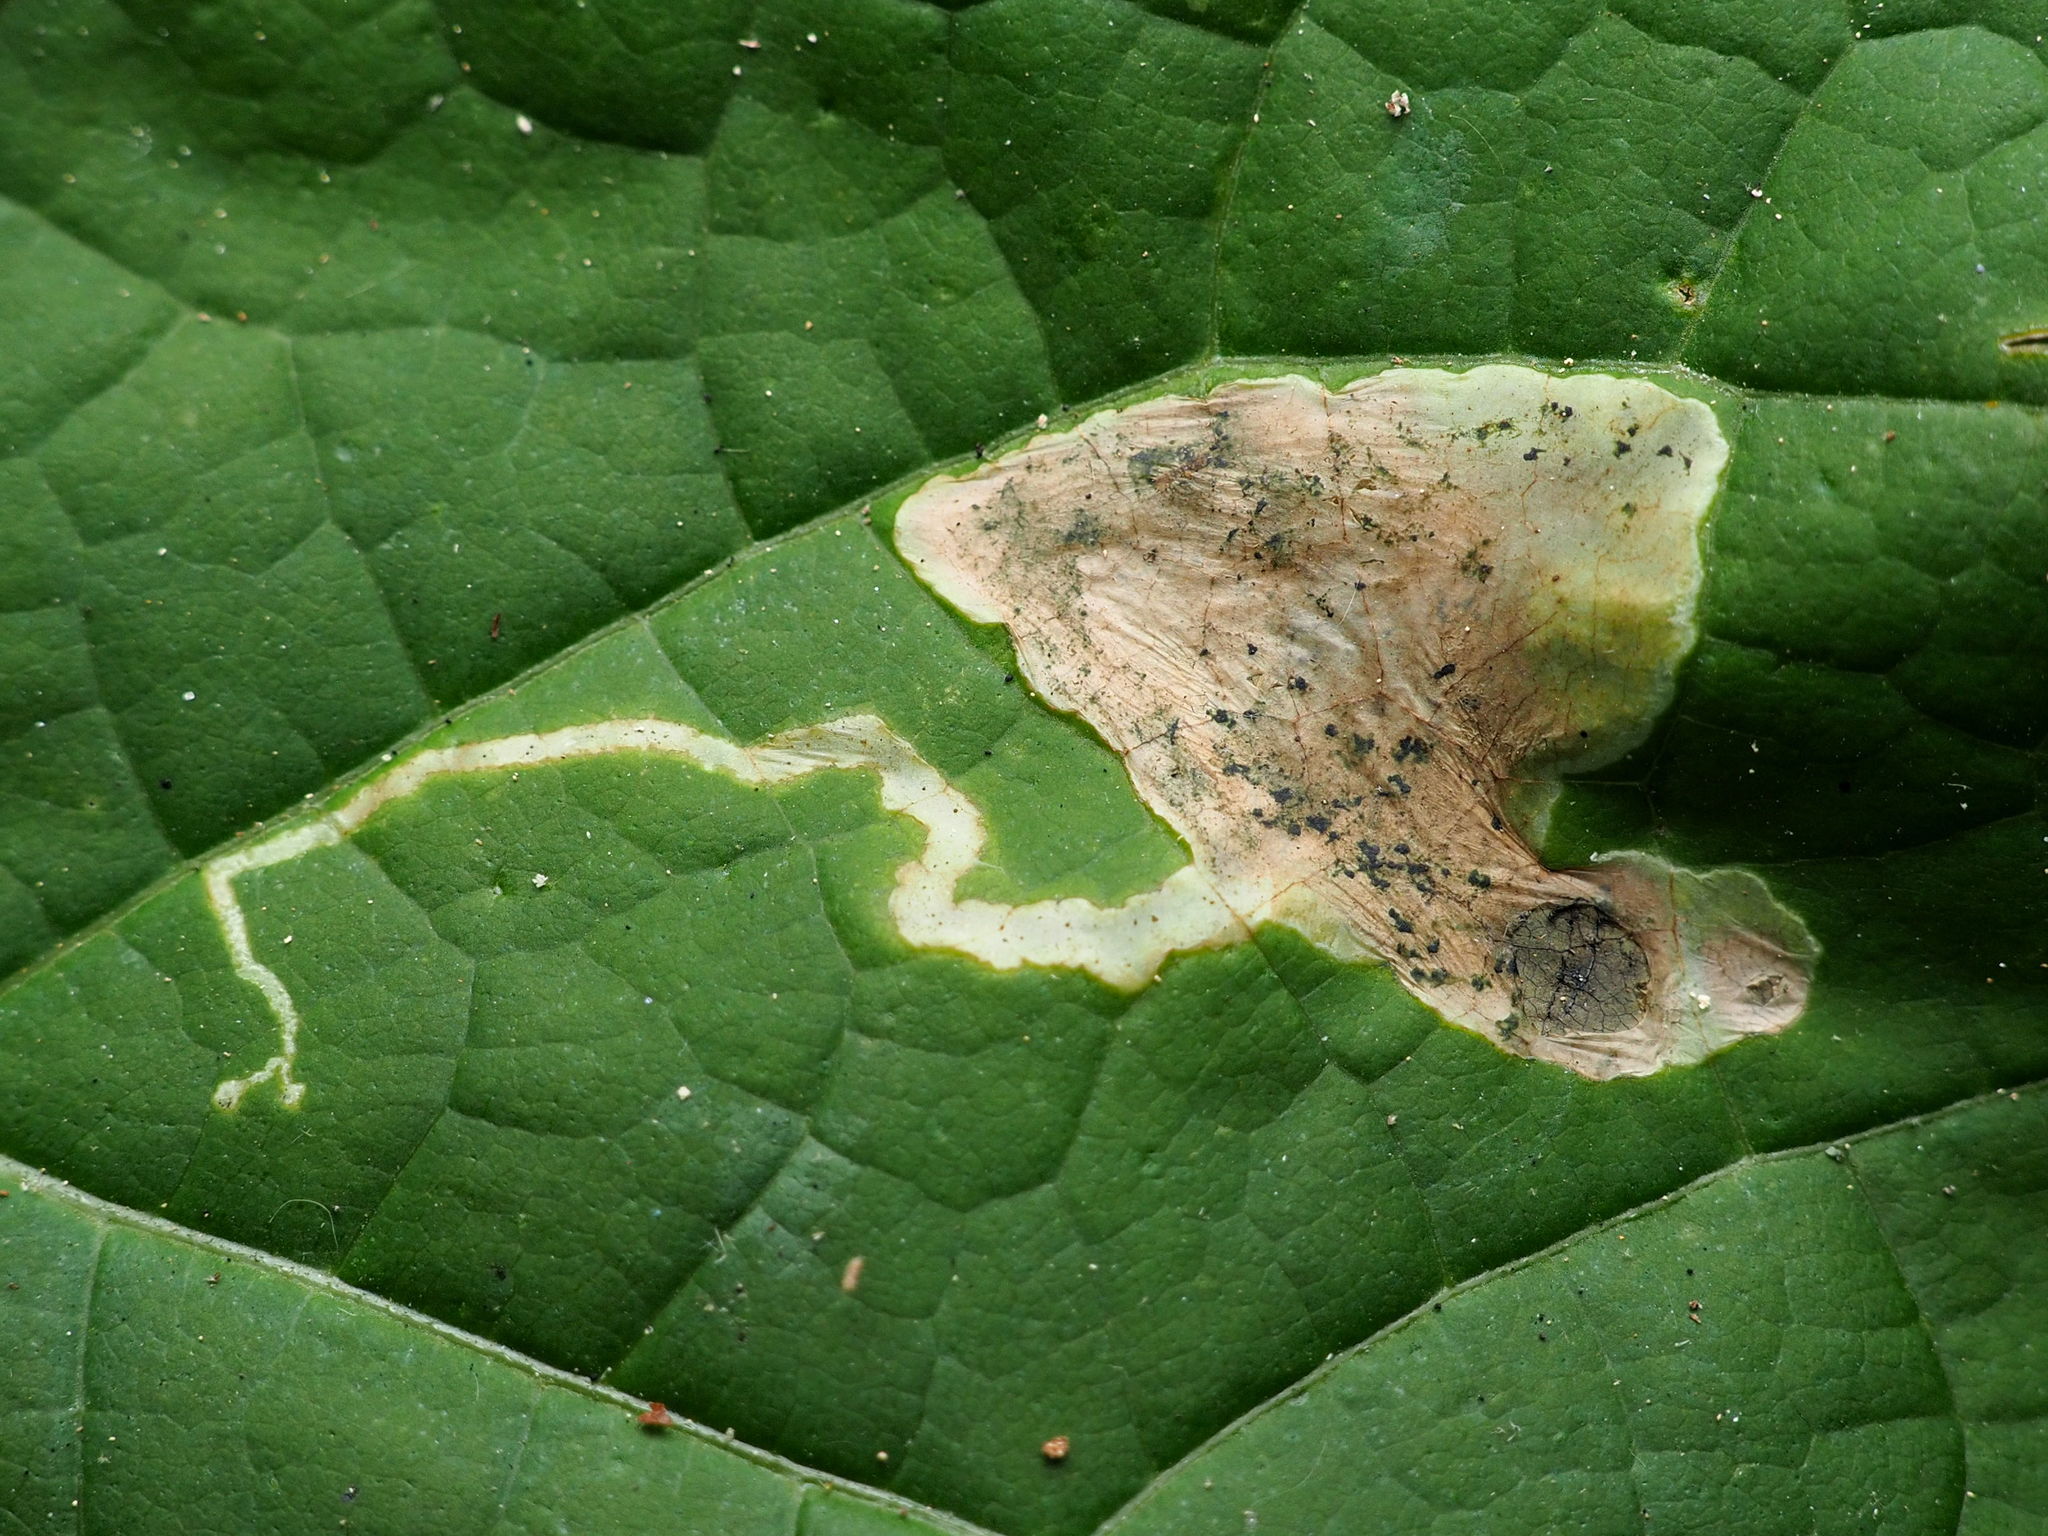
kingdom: Animalia
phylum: Arthropoda
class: Insecta
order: Diptera
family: Agromyzidae
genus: Amauromyza
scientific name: Amauromyza pleuralis
